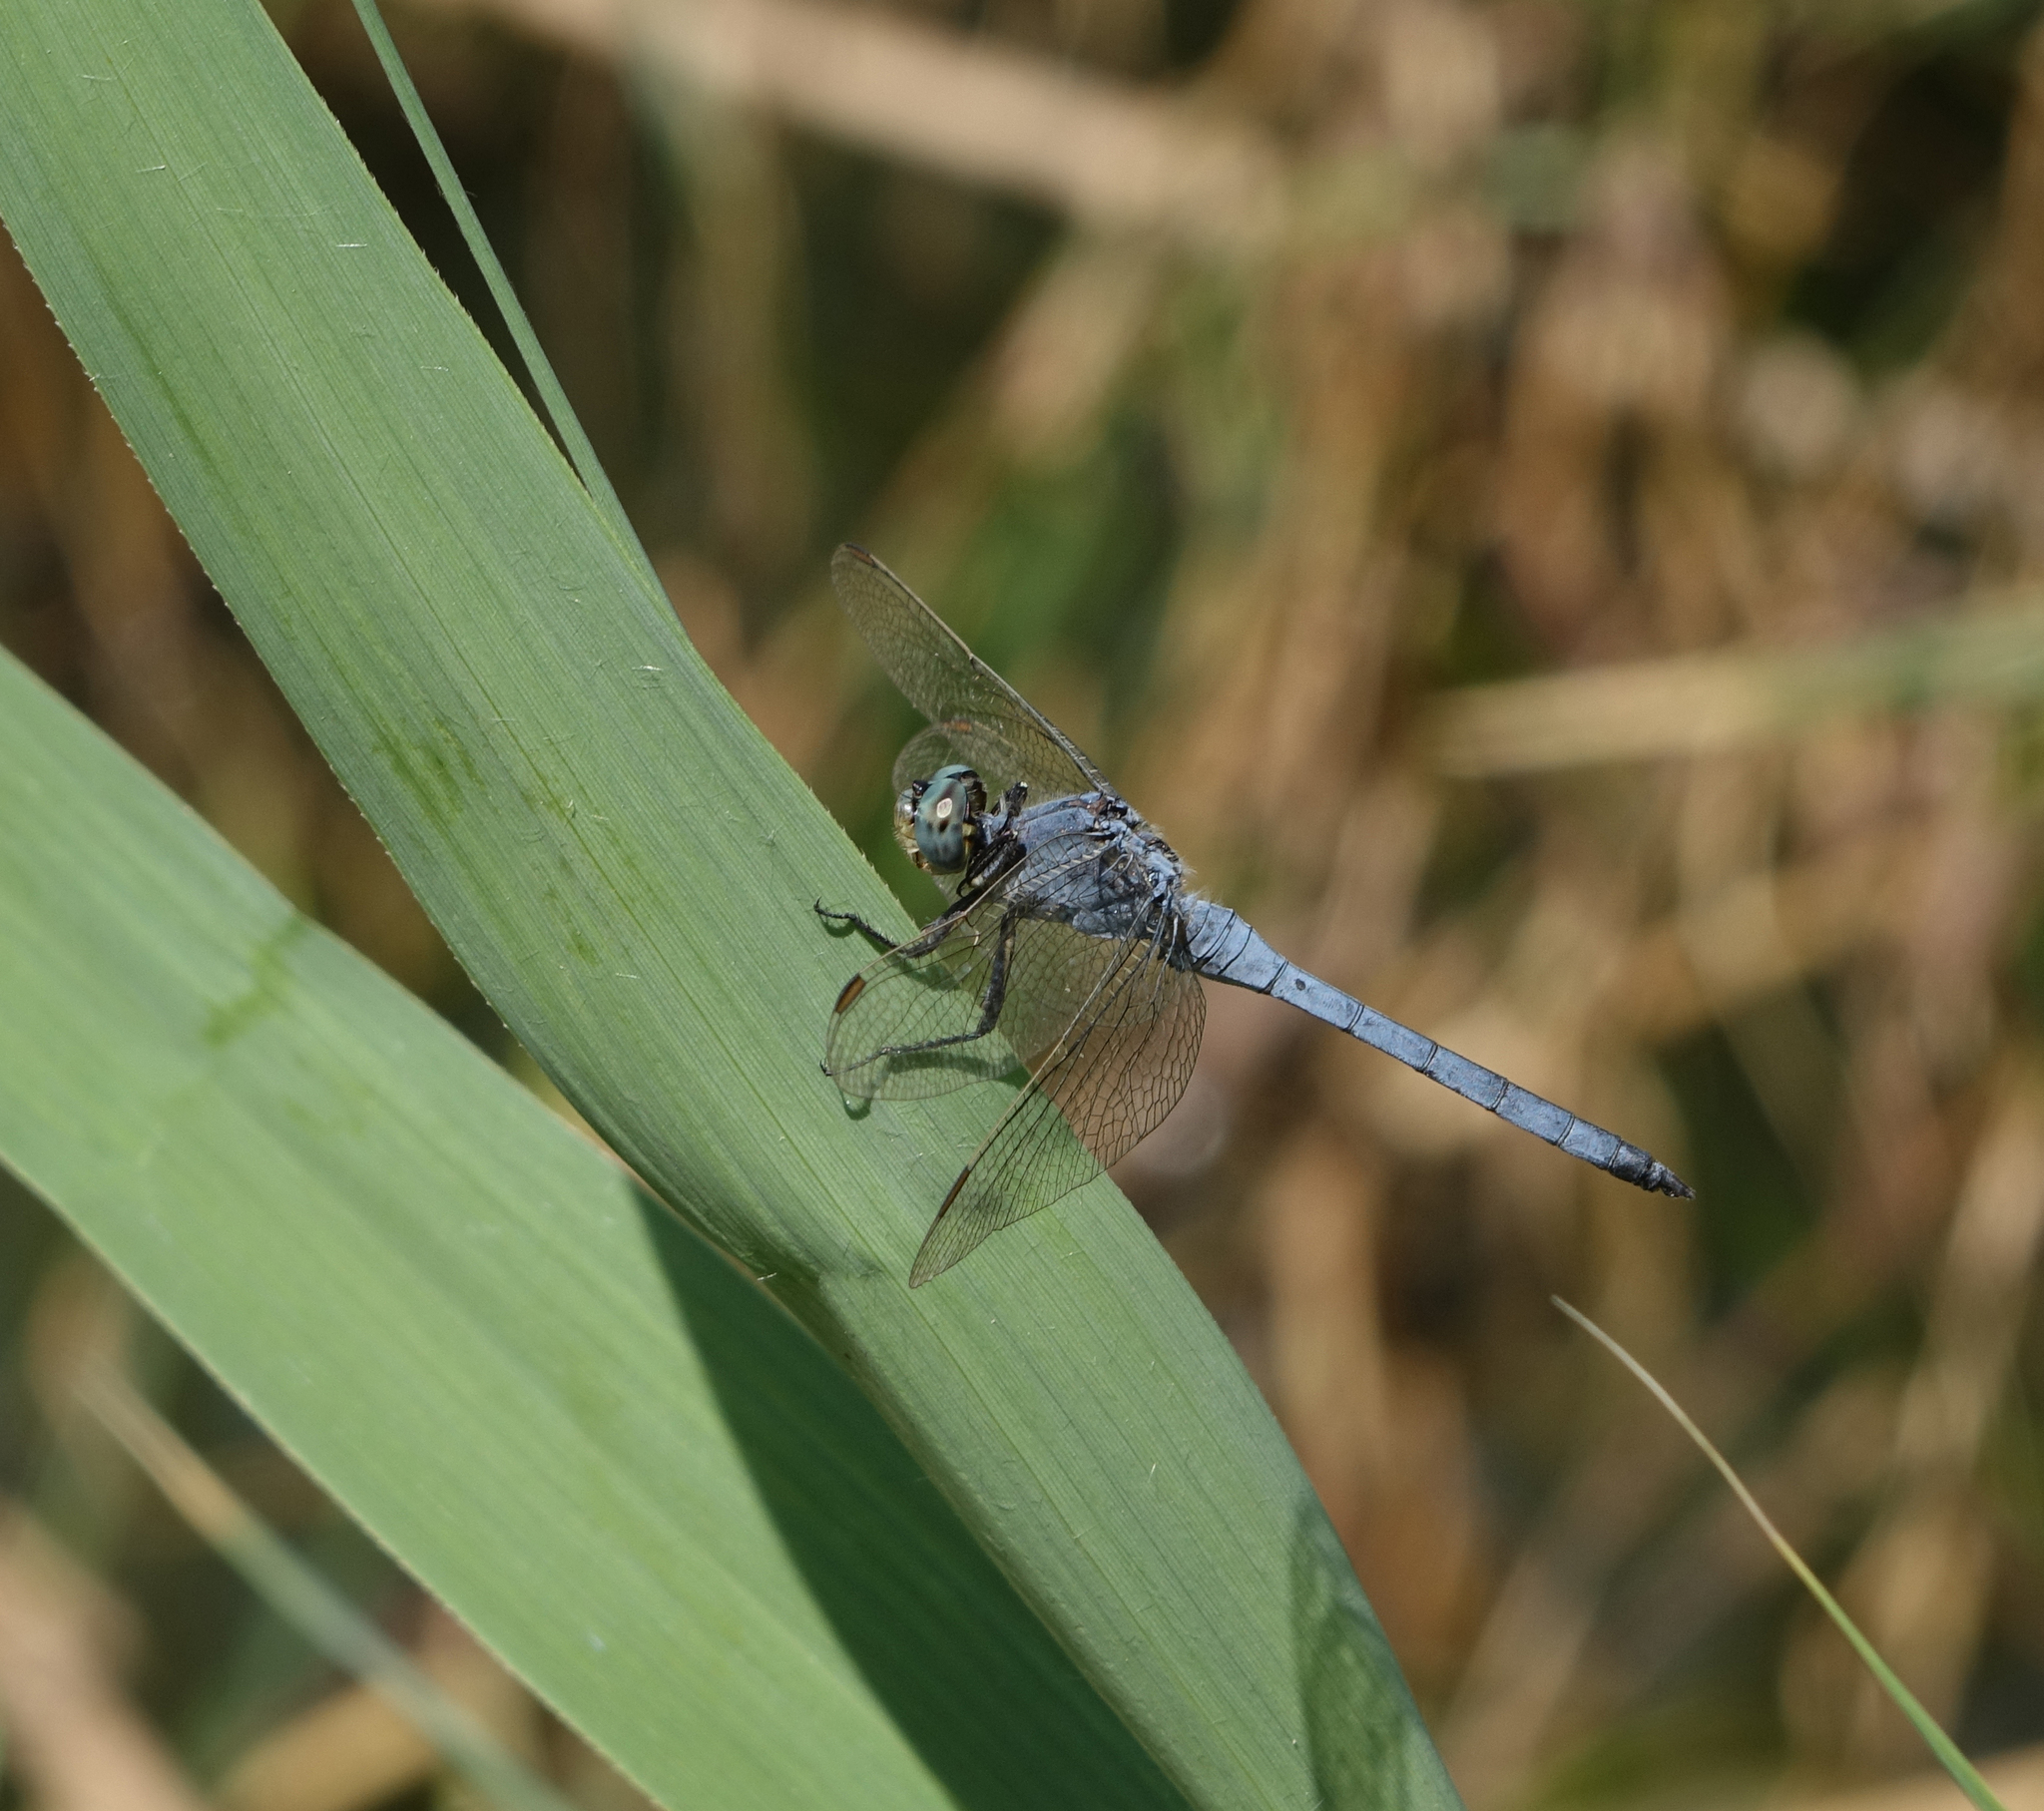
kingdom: Animalia
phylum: Arthropoda
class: Insecta
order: Odonata
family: Libellulidae
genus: Orthetrum
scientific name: Orthetrum coerulescens
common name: Keeled skimmer
